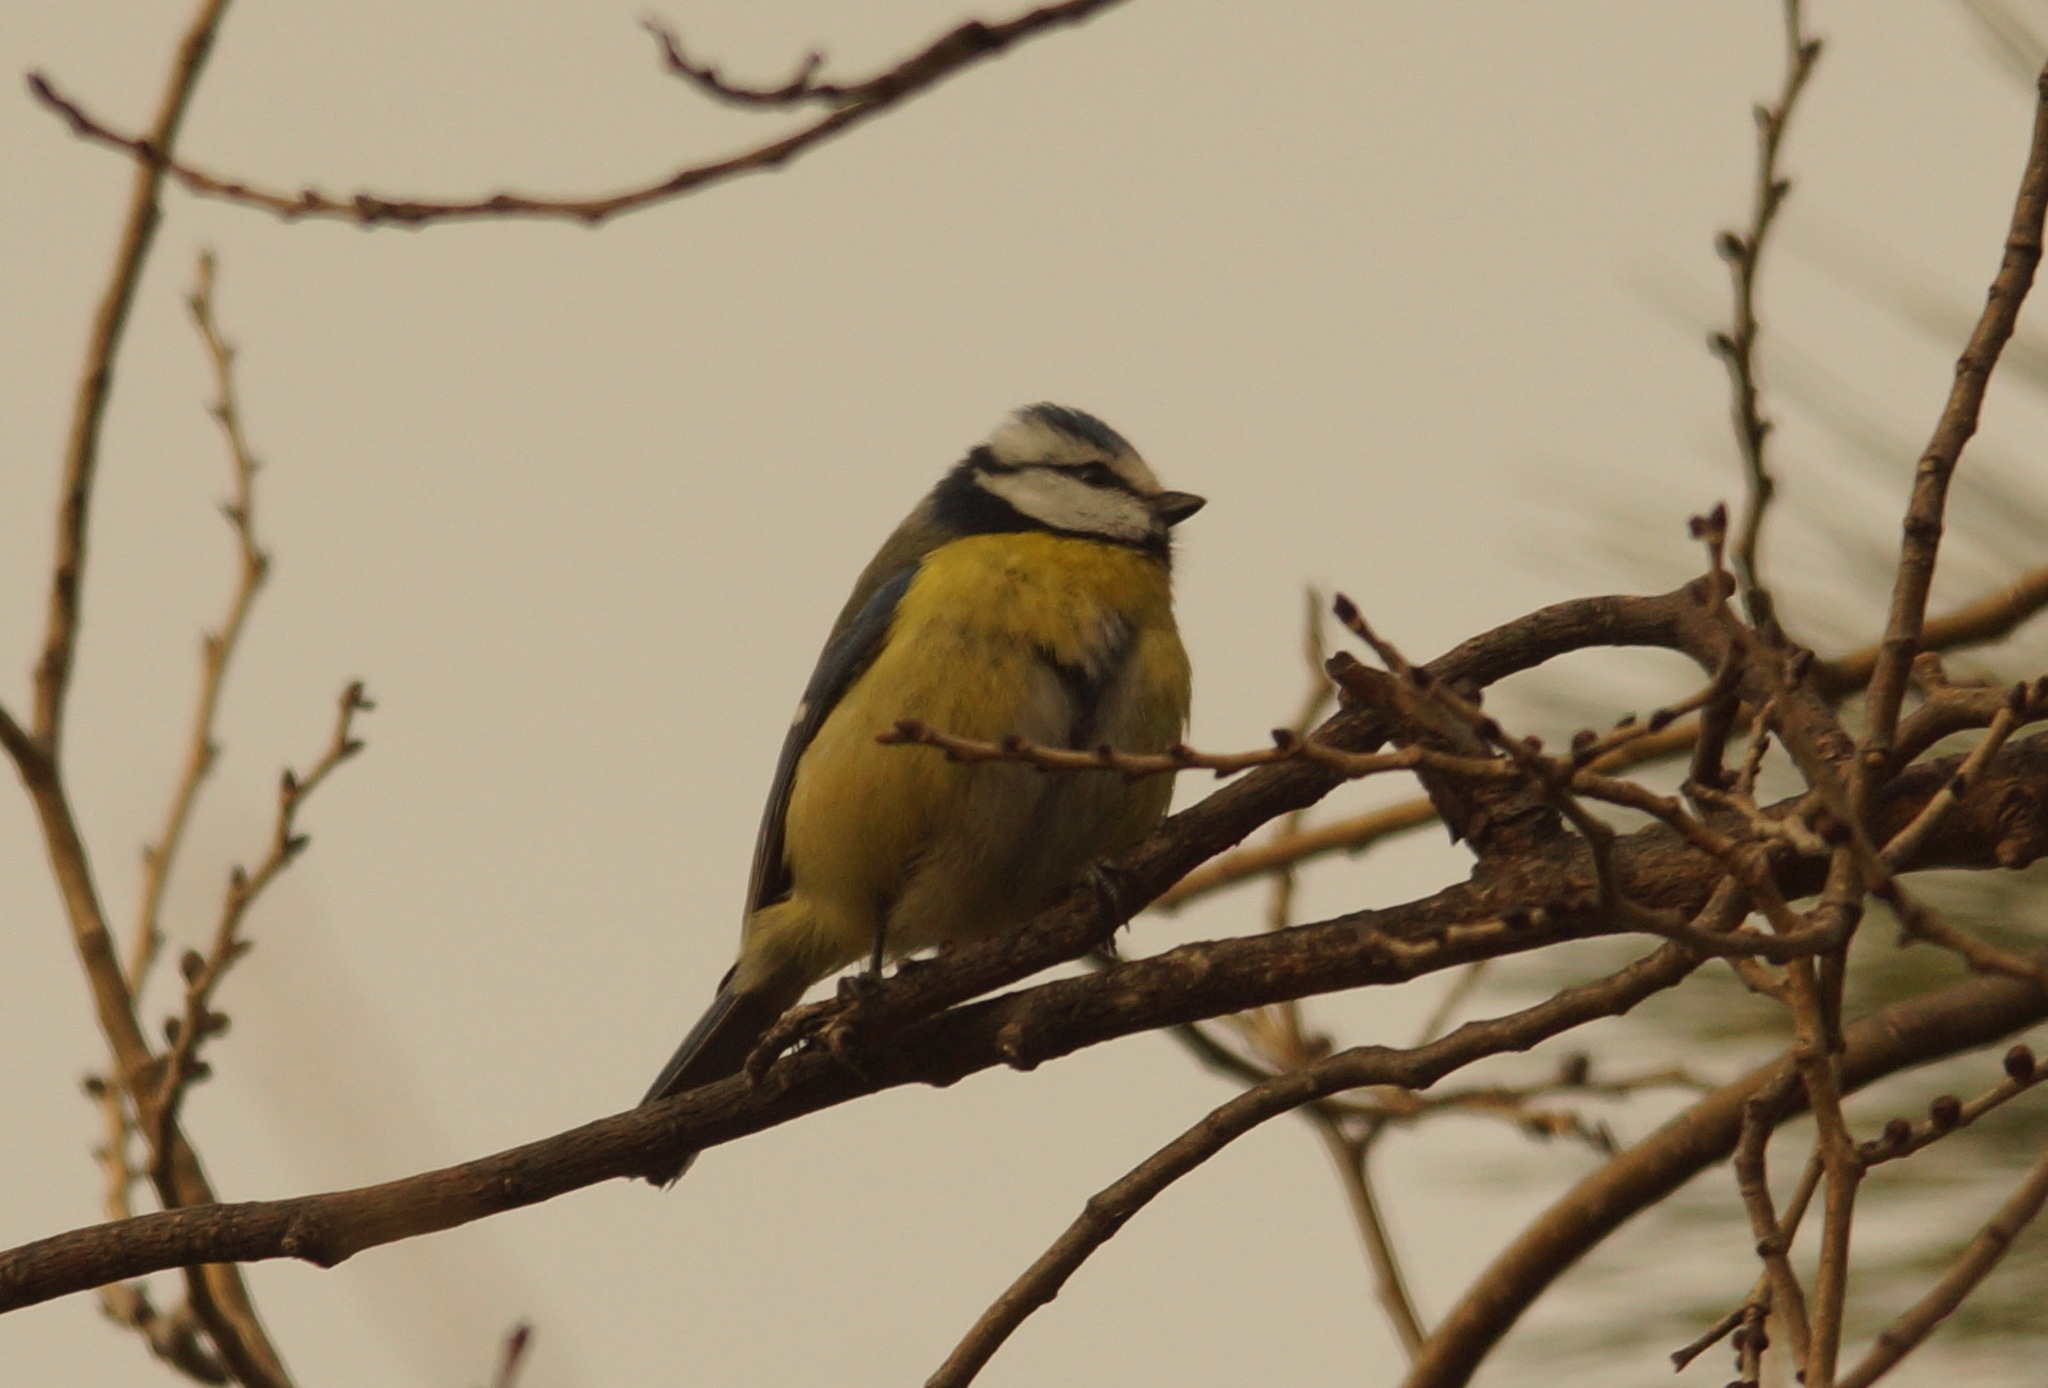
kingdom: Animalia
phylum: Chordata
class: Aves
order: Passeriformes
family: Paridae
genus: Cyanistes
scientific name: Cyanistes caeruleus
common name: Eurasian blue tit
